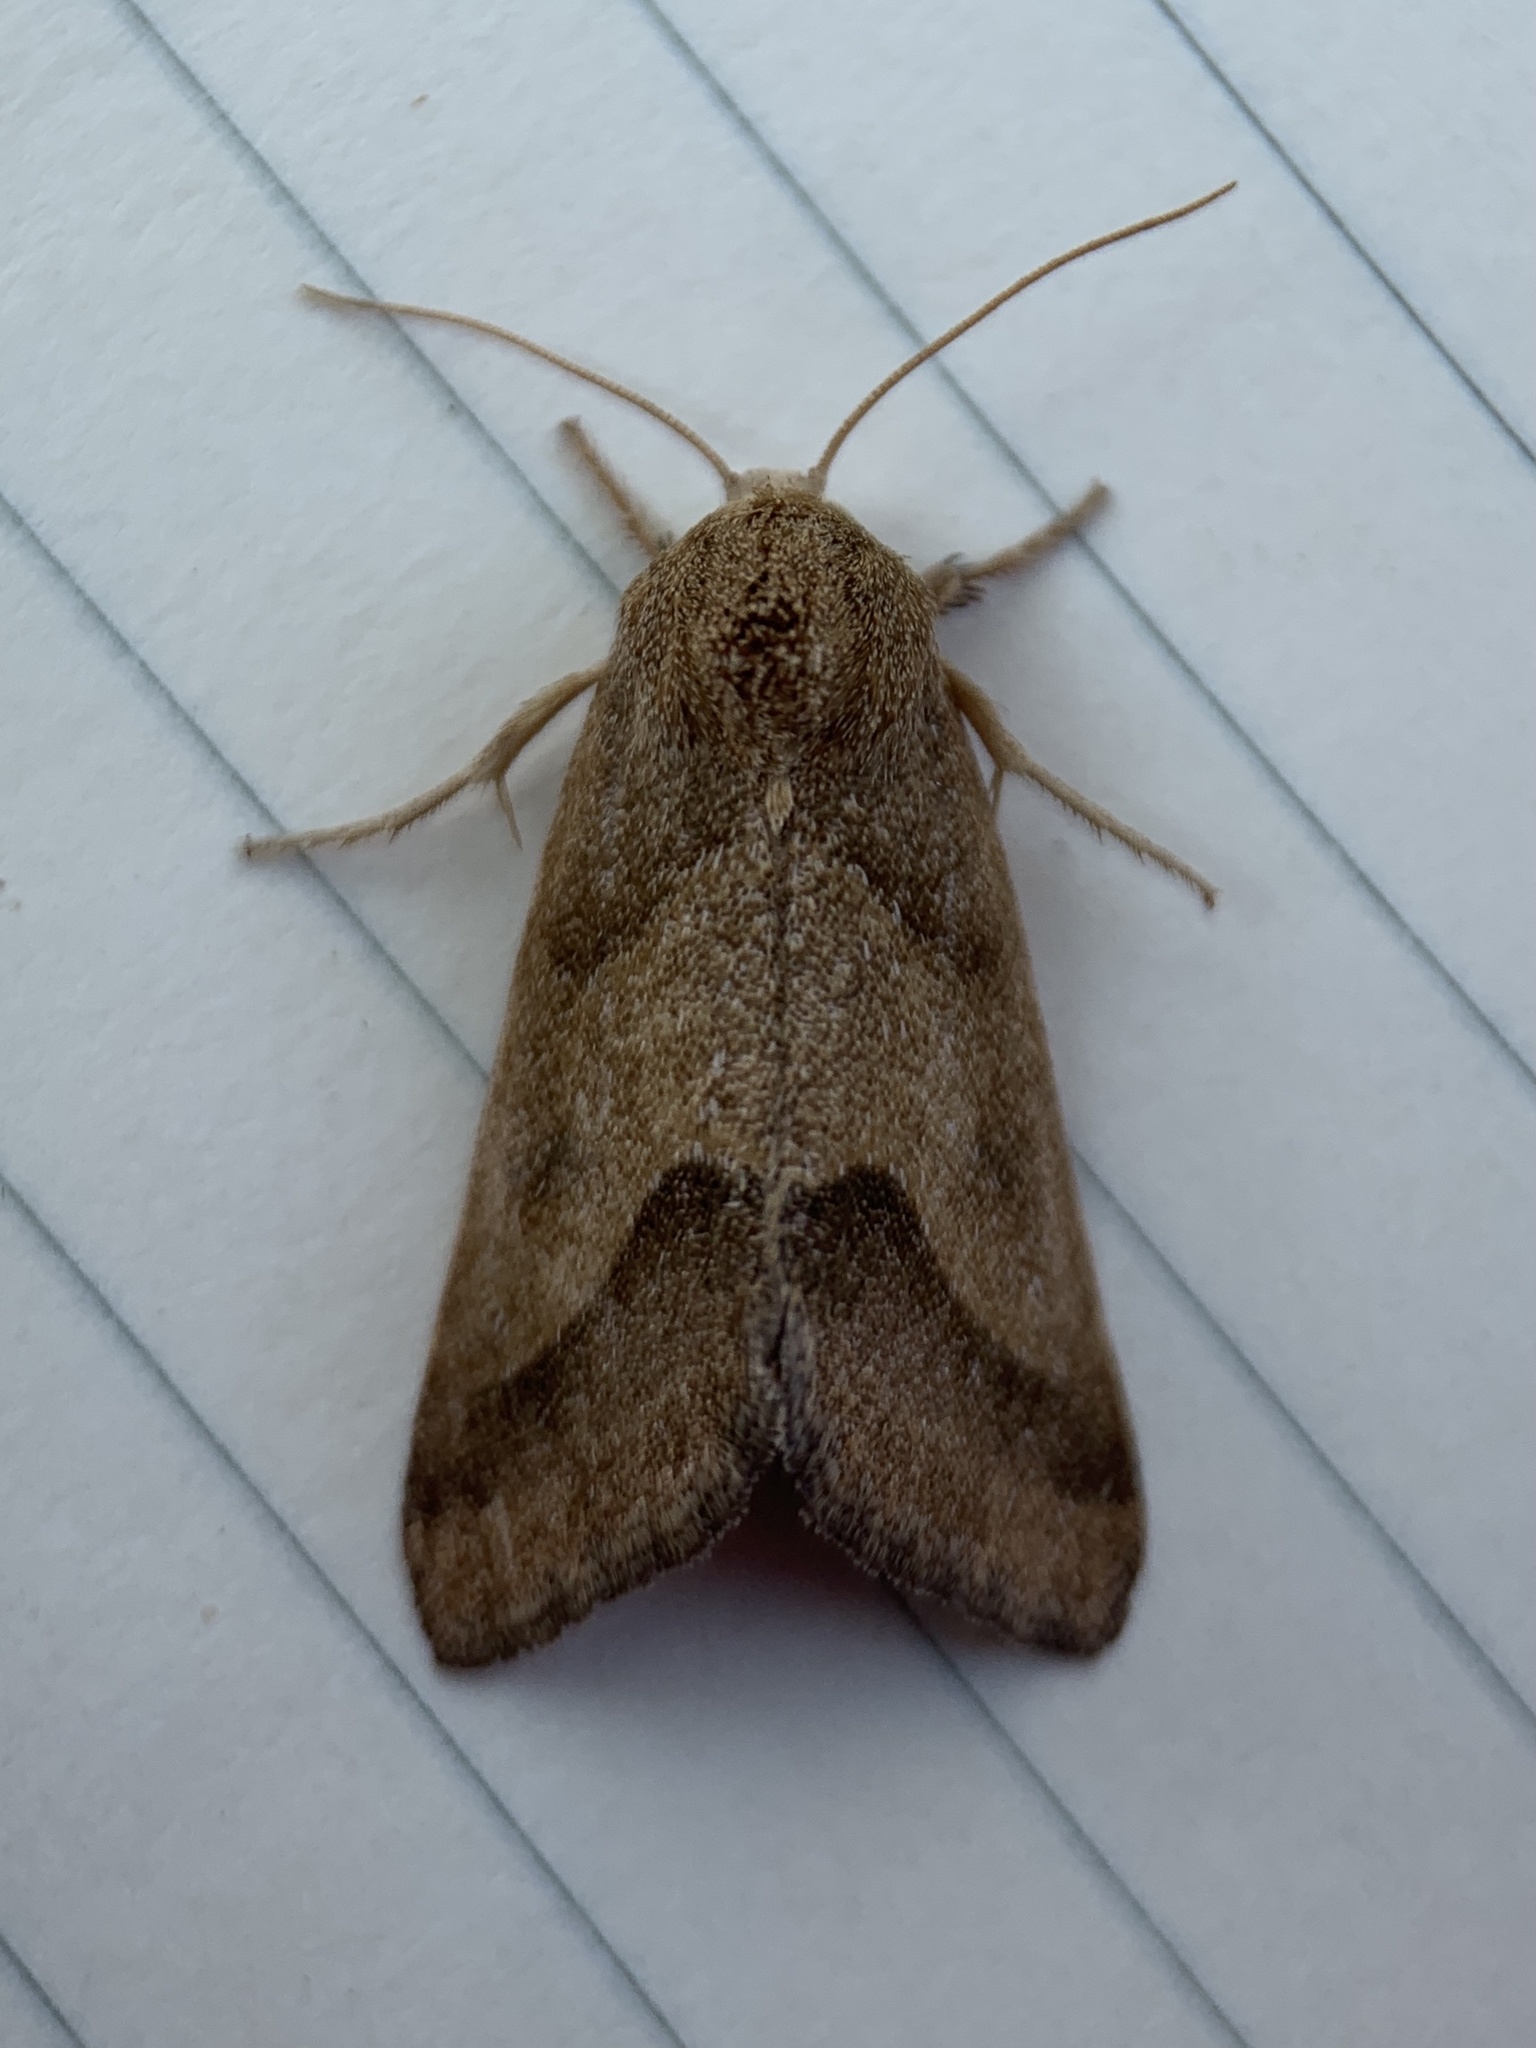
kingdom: Animalia
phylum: Arthropoda
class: Insecta
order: Lepidoptera
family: Noctuidae
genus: Schinia
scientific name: Schinia gracilenta
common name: Slender flower moth
